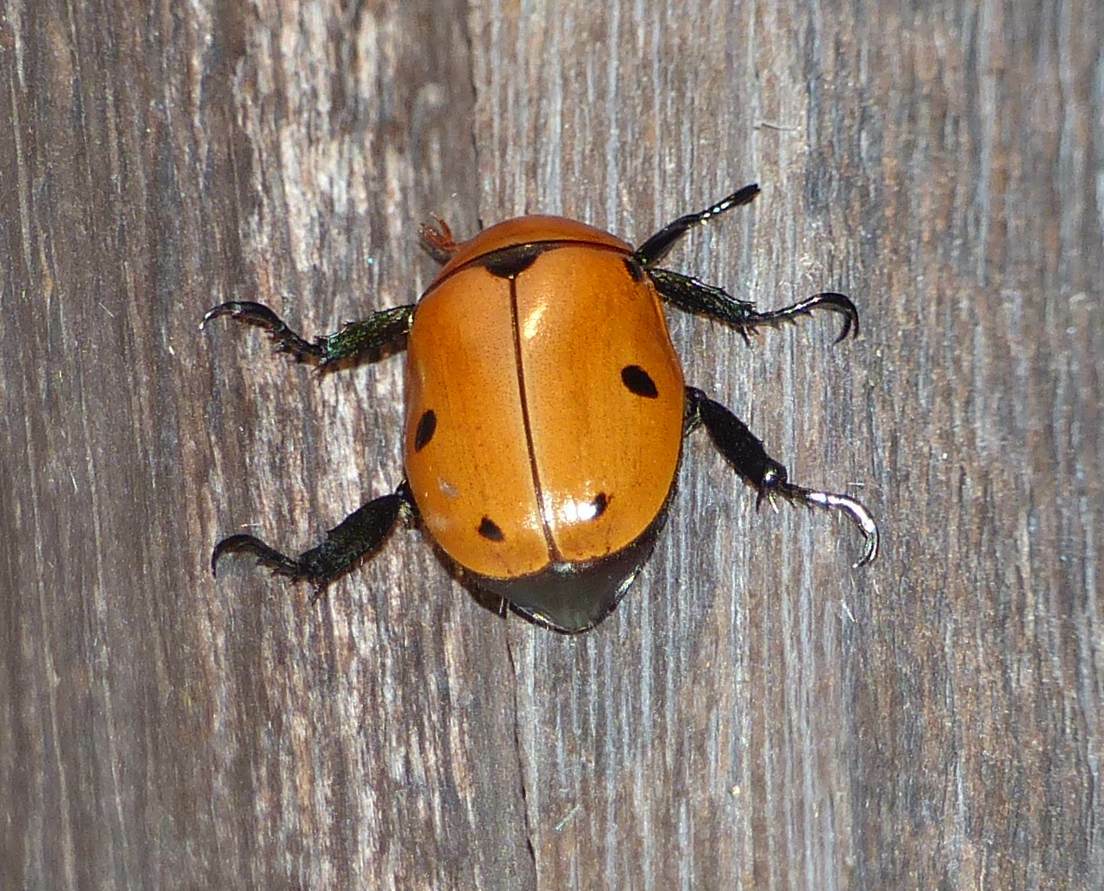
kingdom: Animalia
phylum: Arthropoda
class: Insecta
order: Coleoptera
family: Scarabaeidae
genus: Pelidnota
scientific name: Pelidnota punctata
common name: Grapevine beetle
